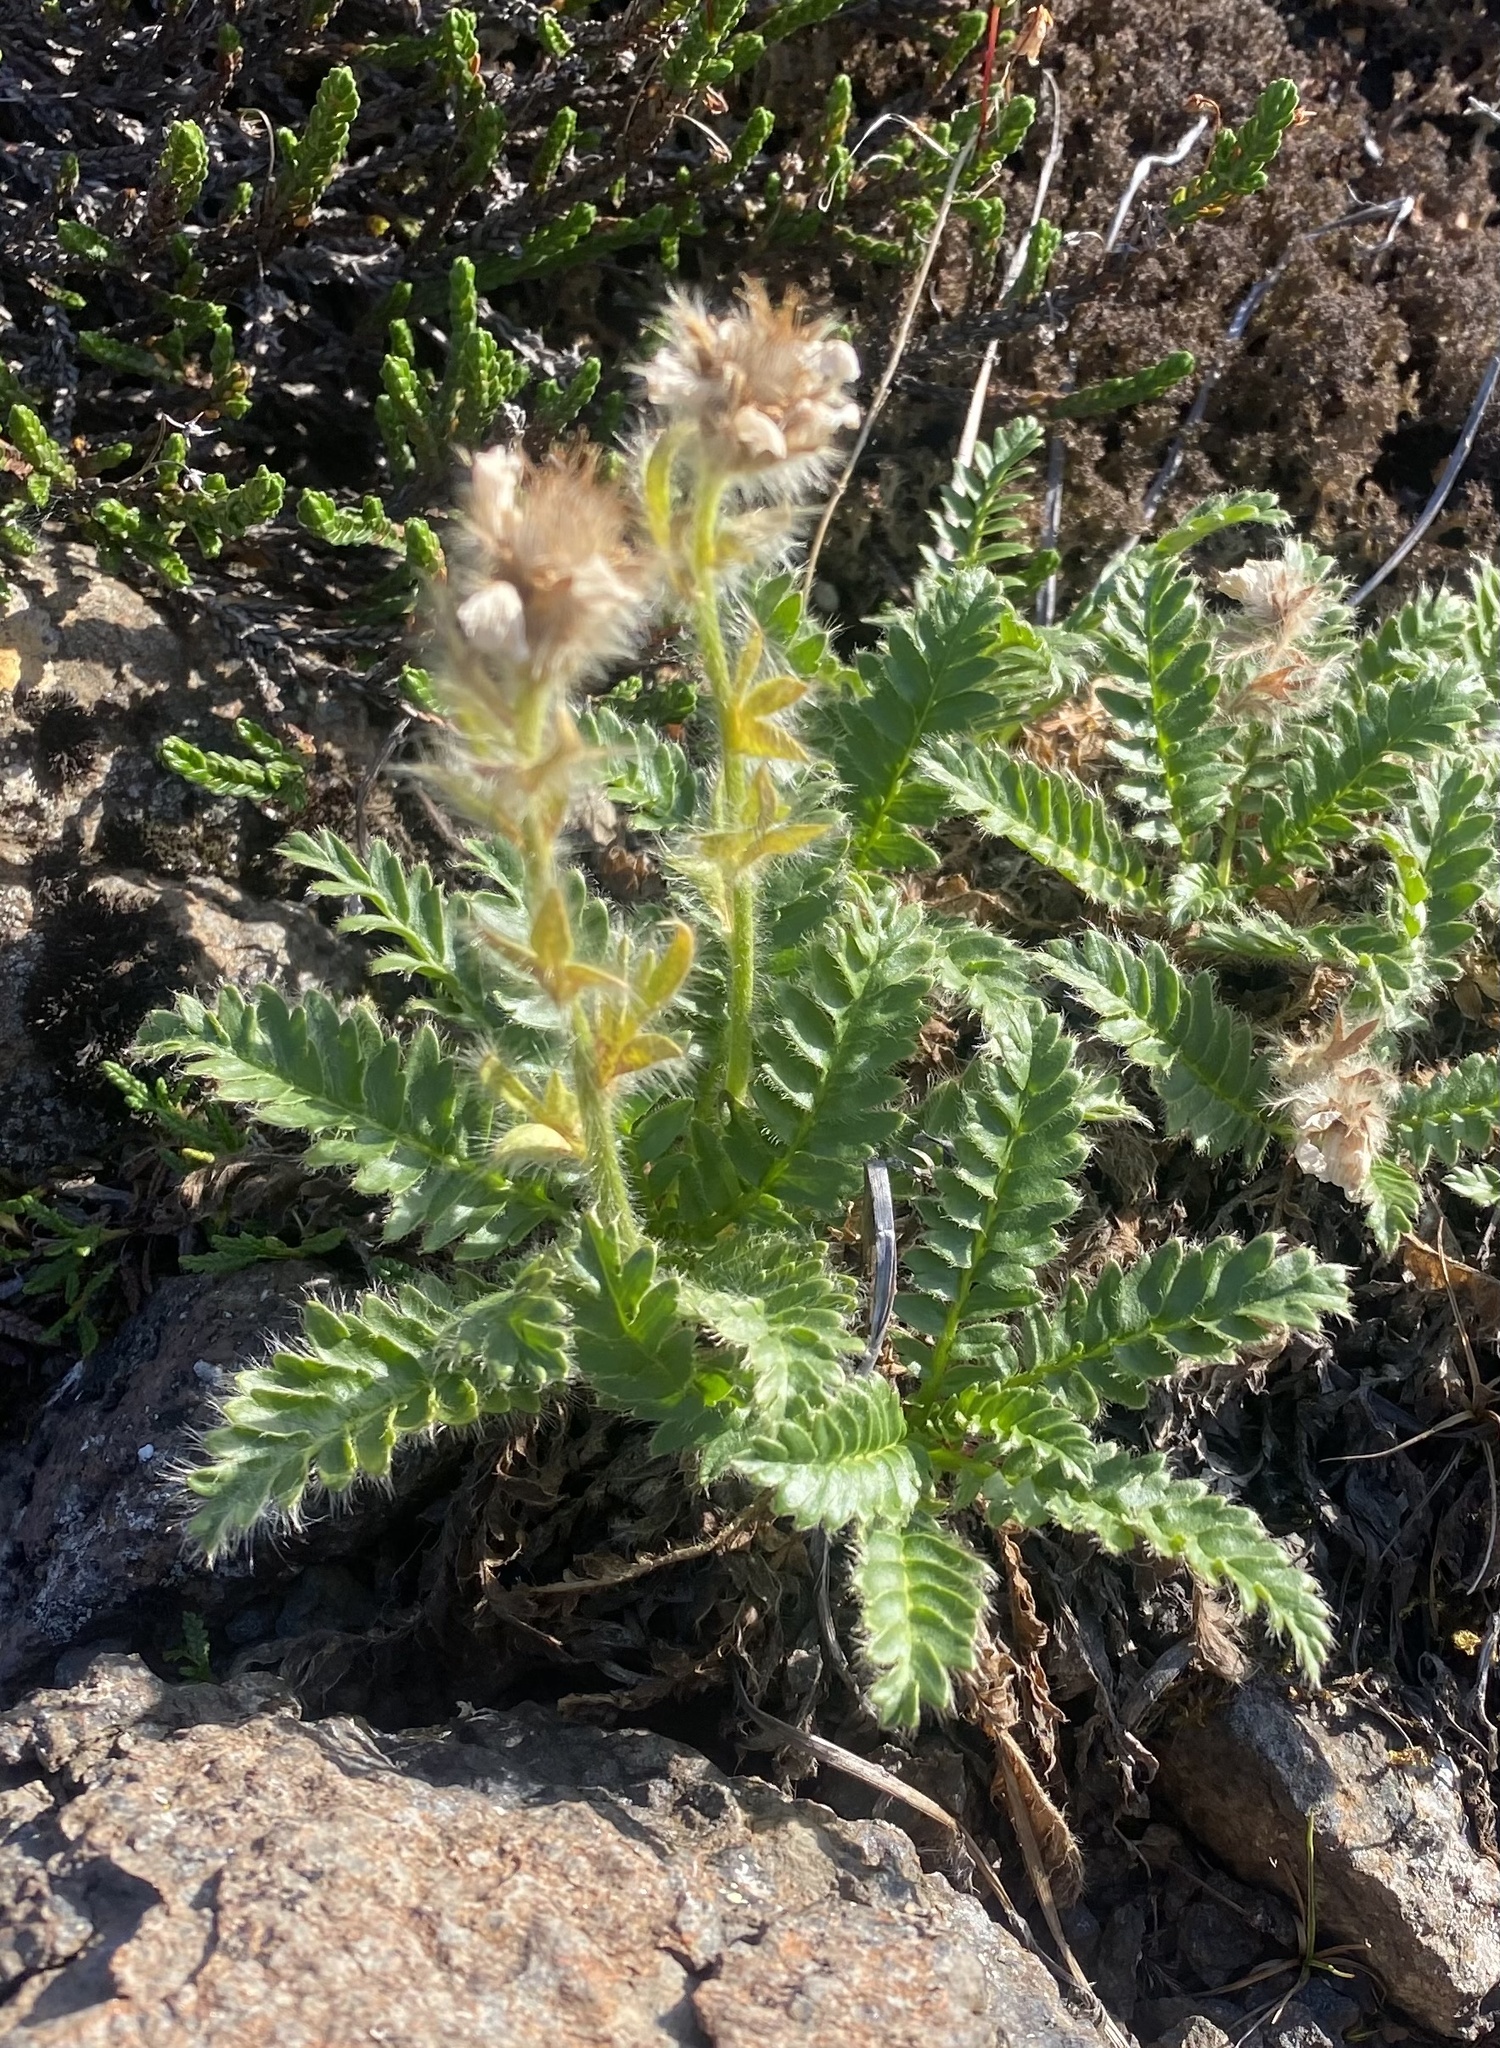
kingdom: Plantae
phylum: Tracheophyta
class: Magnoliopsida
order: Rosales
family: Rosaceae
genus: Geum
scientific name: Geum glaciale
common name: Glacier avens
